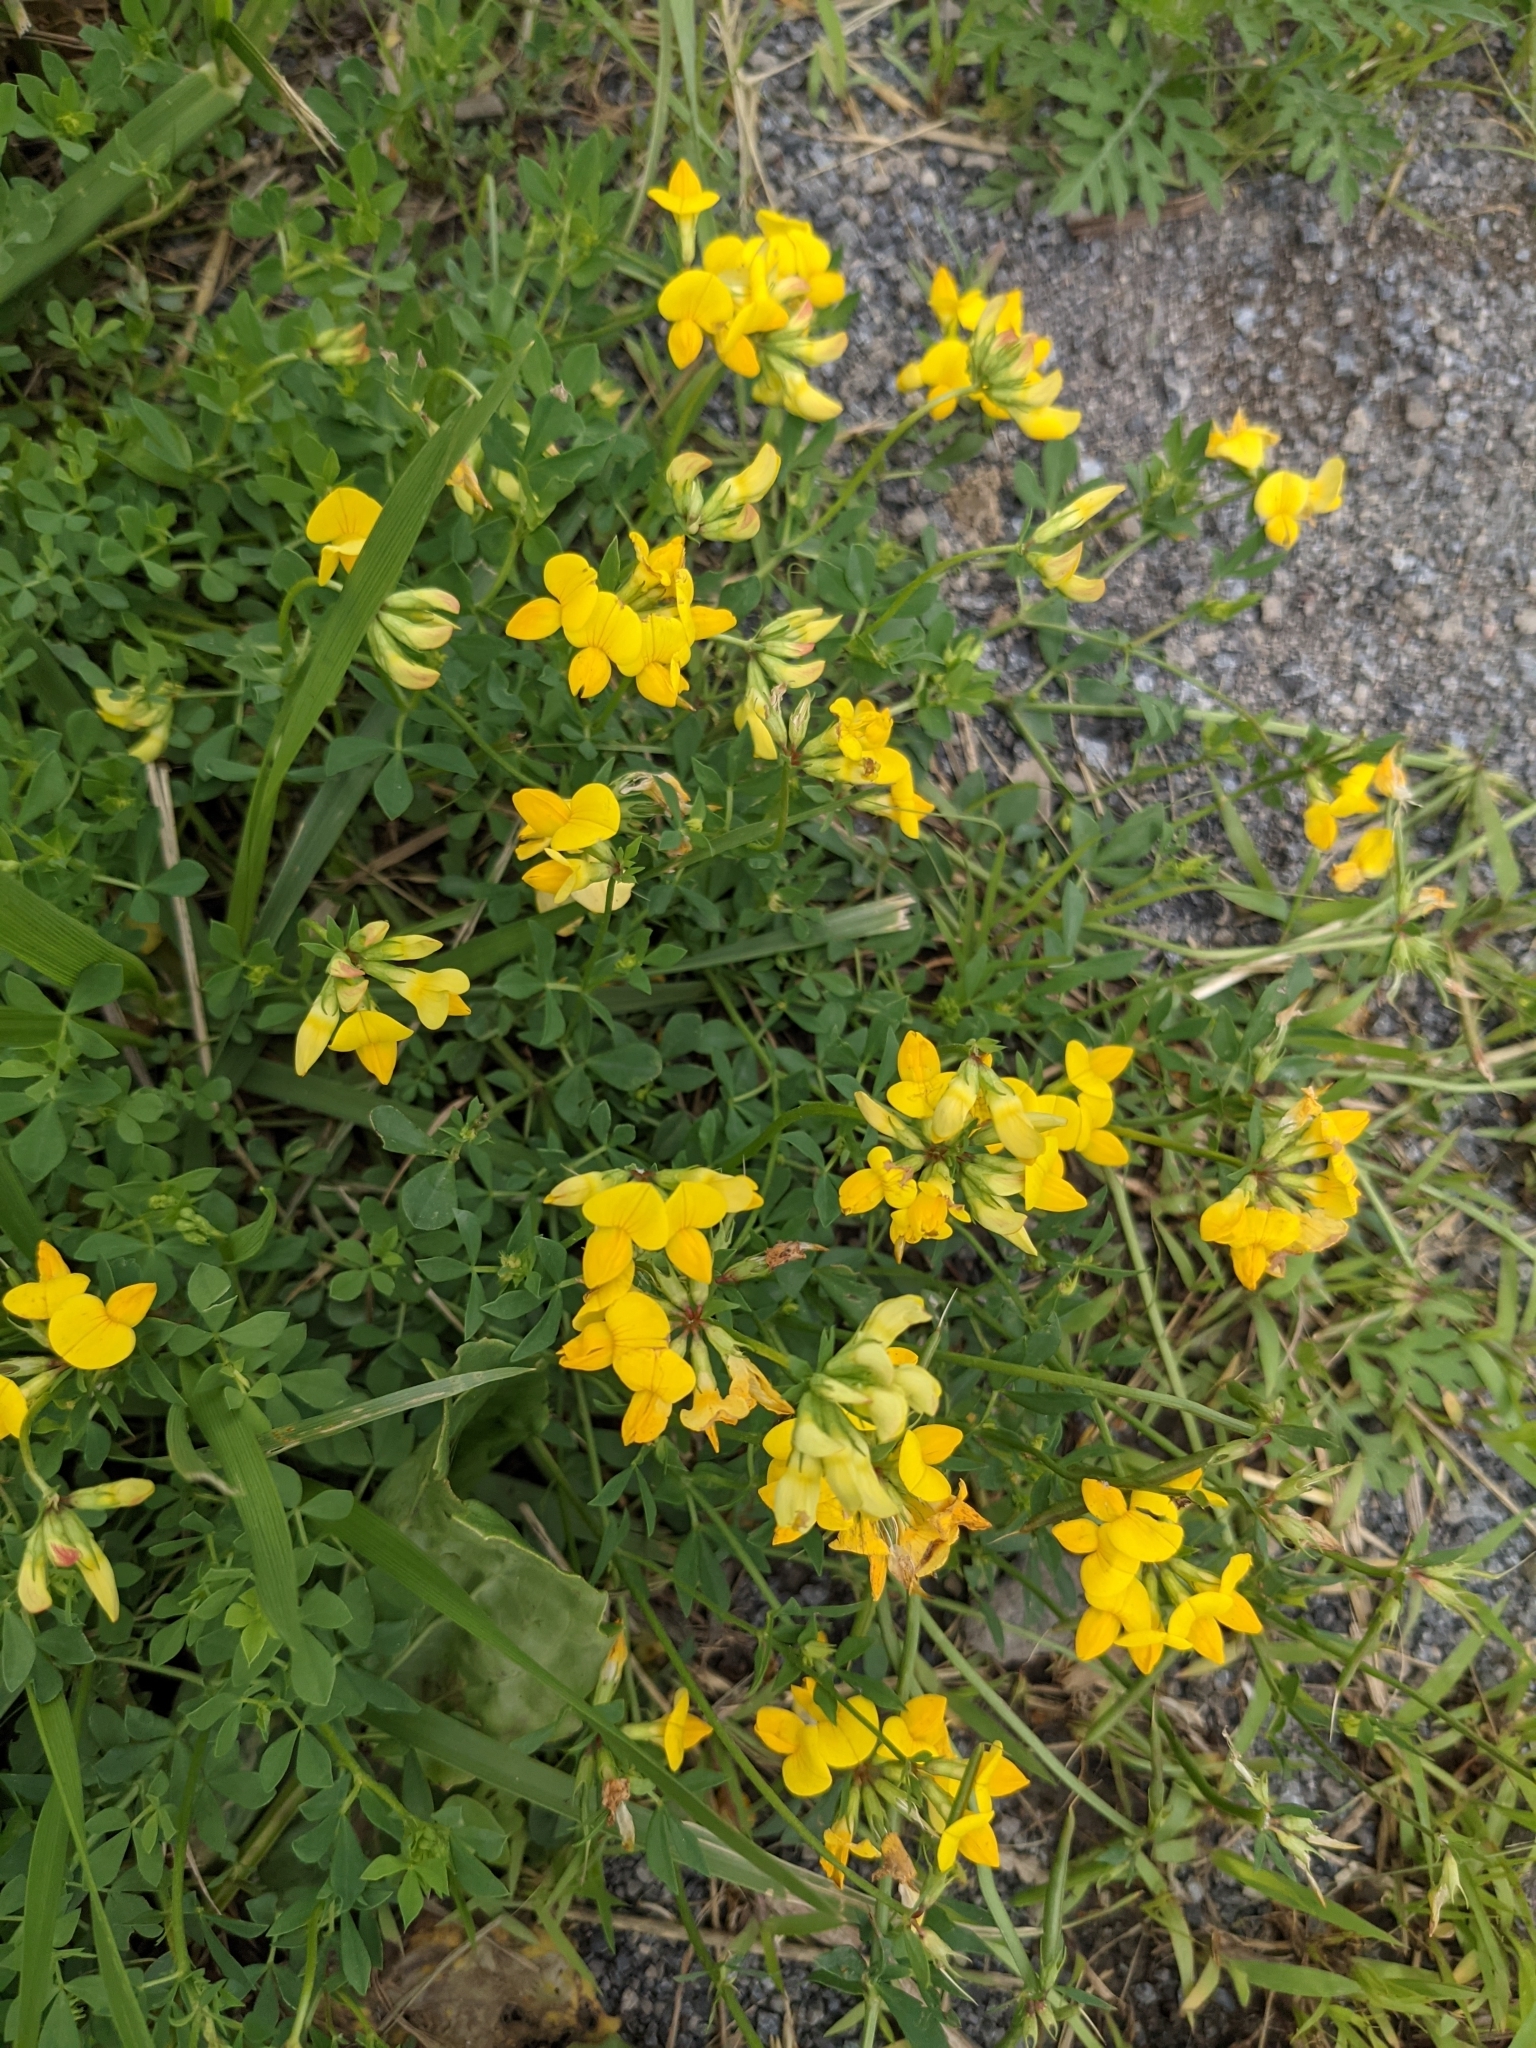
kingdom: Plantae
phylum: Tracheophyta
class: Magnoliopsida
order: Fabales
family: Fabaceae
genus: Lotus
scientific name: Lotus corniculatus
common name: Common bird's-foot-trefoil
